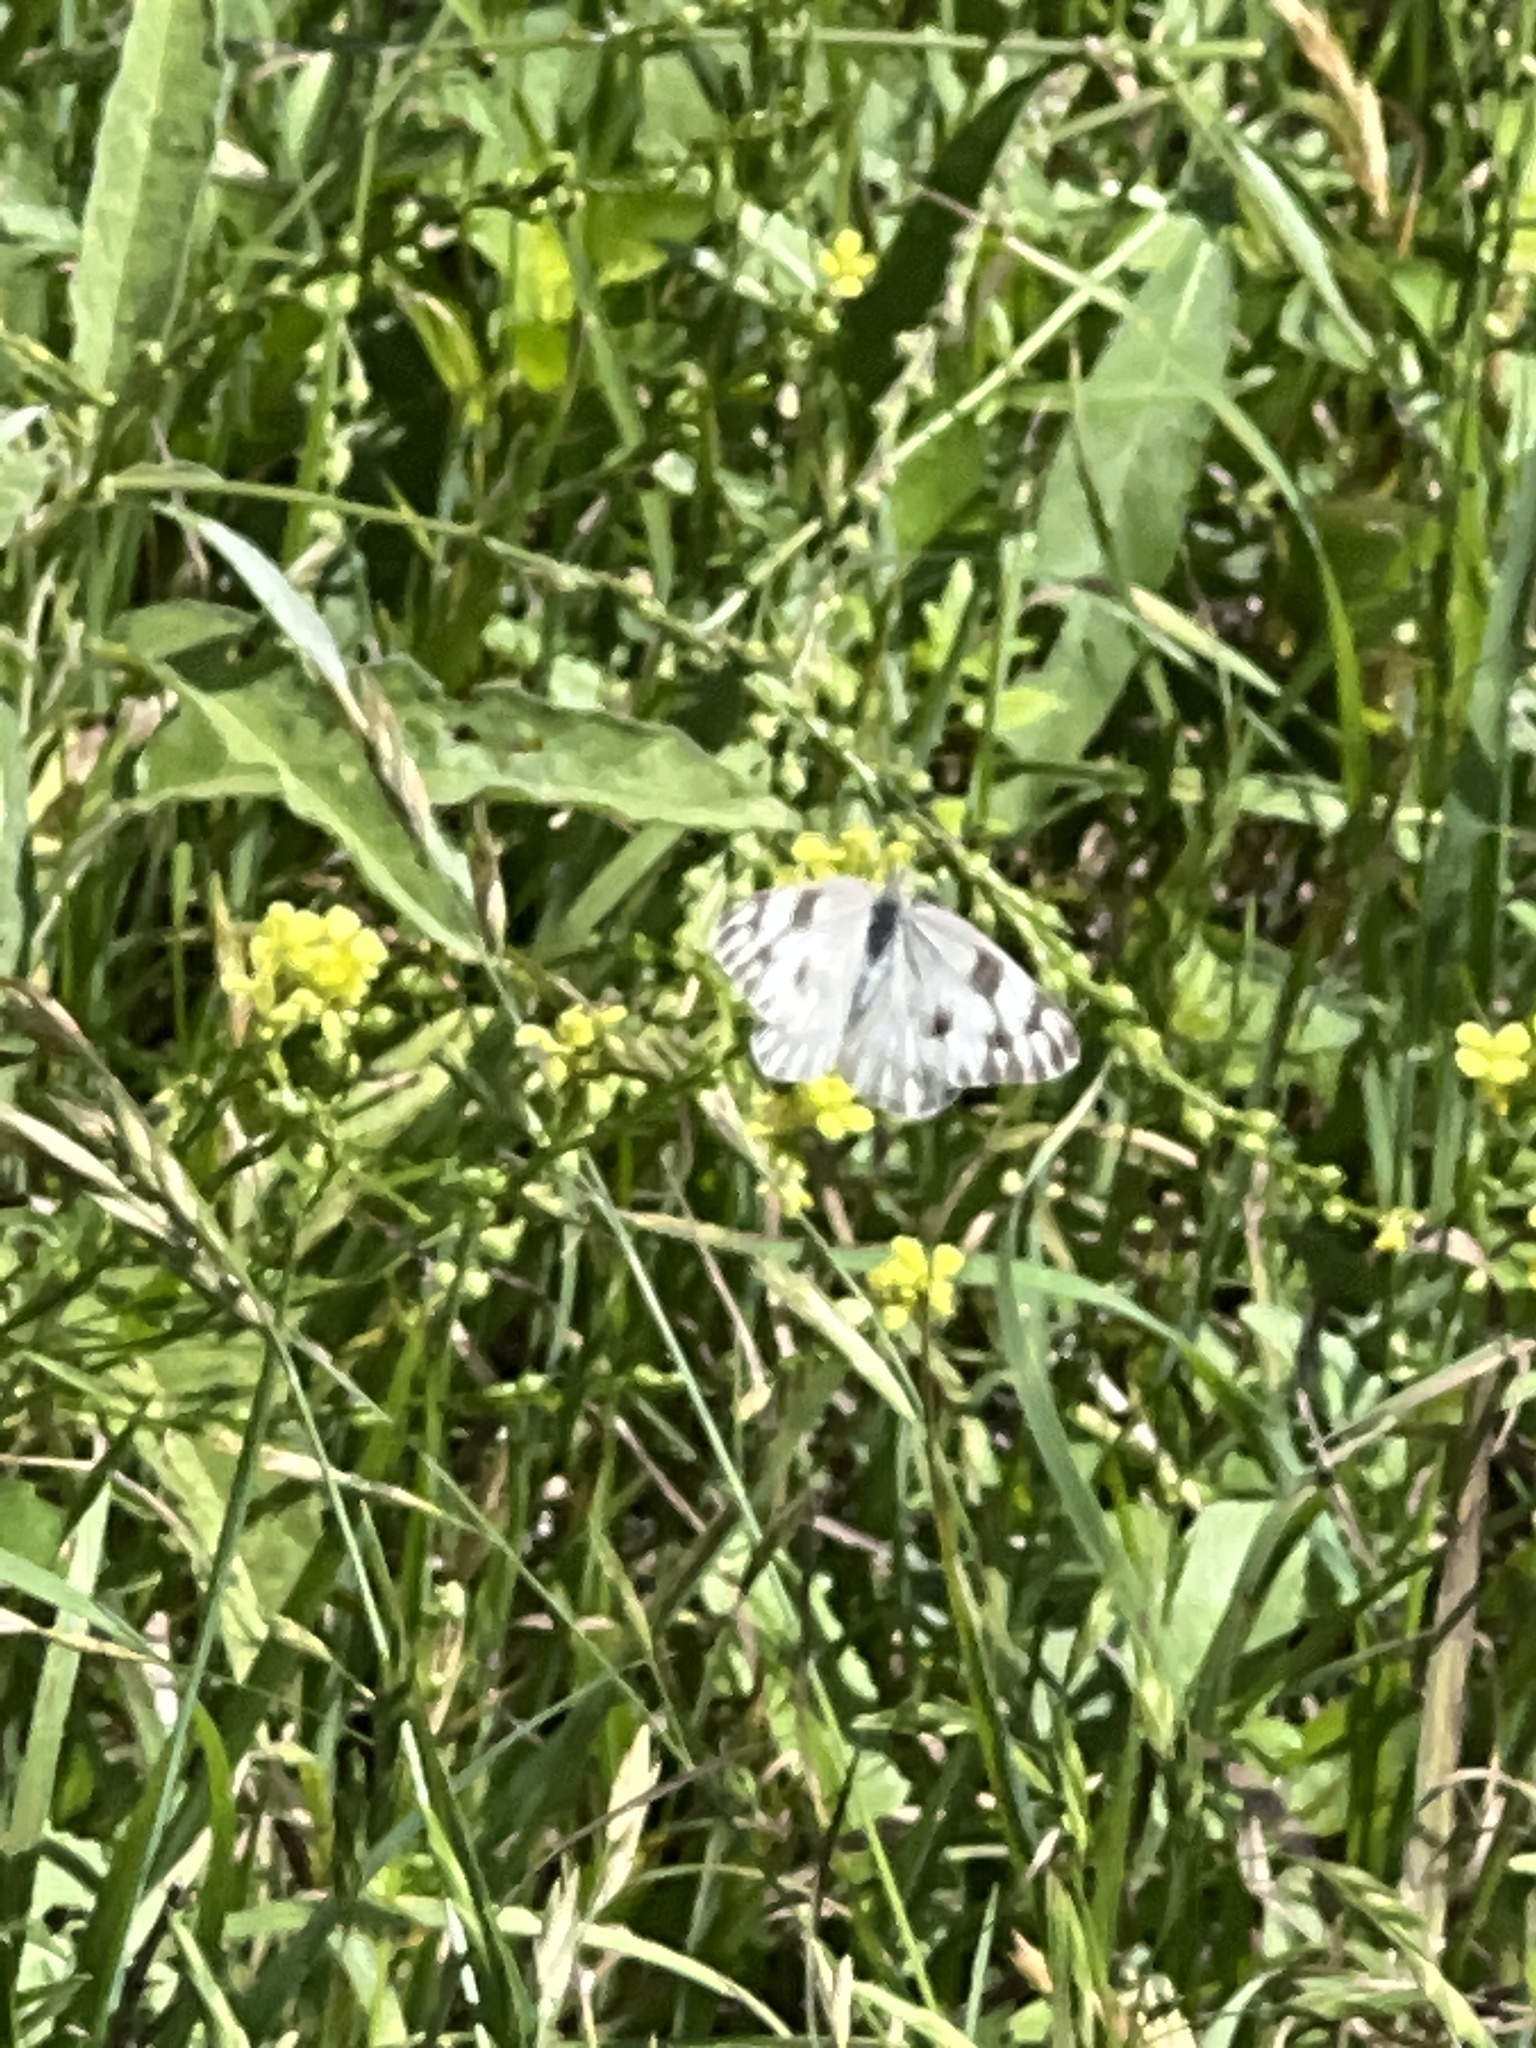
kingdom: Animalia
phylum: Arthropoda
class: Insecta
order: Lepidoptera
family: Pieridae
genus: Pontia
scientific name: Pontia protodice
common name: Checkered white
